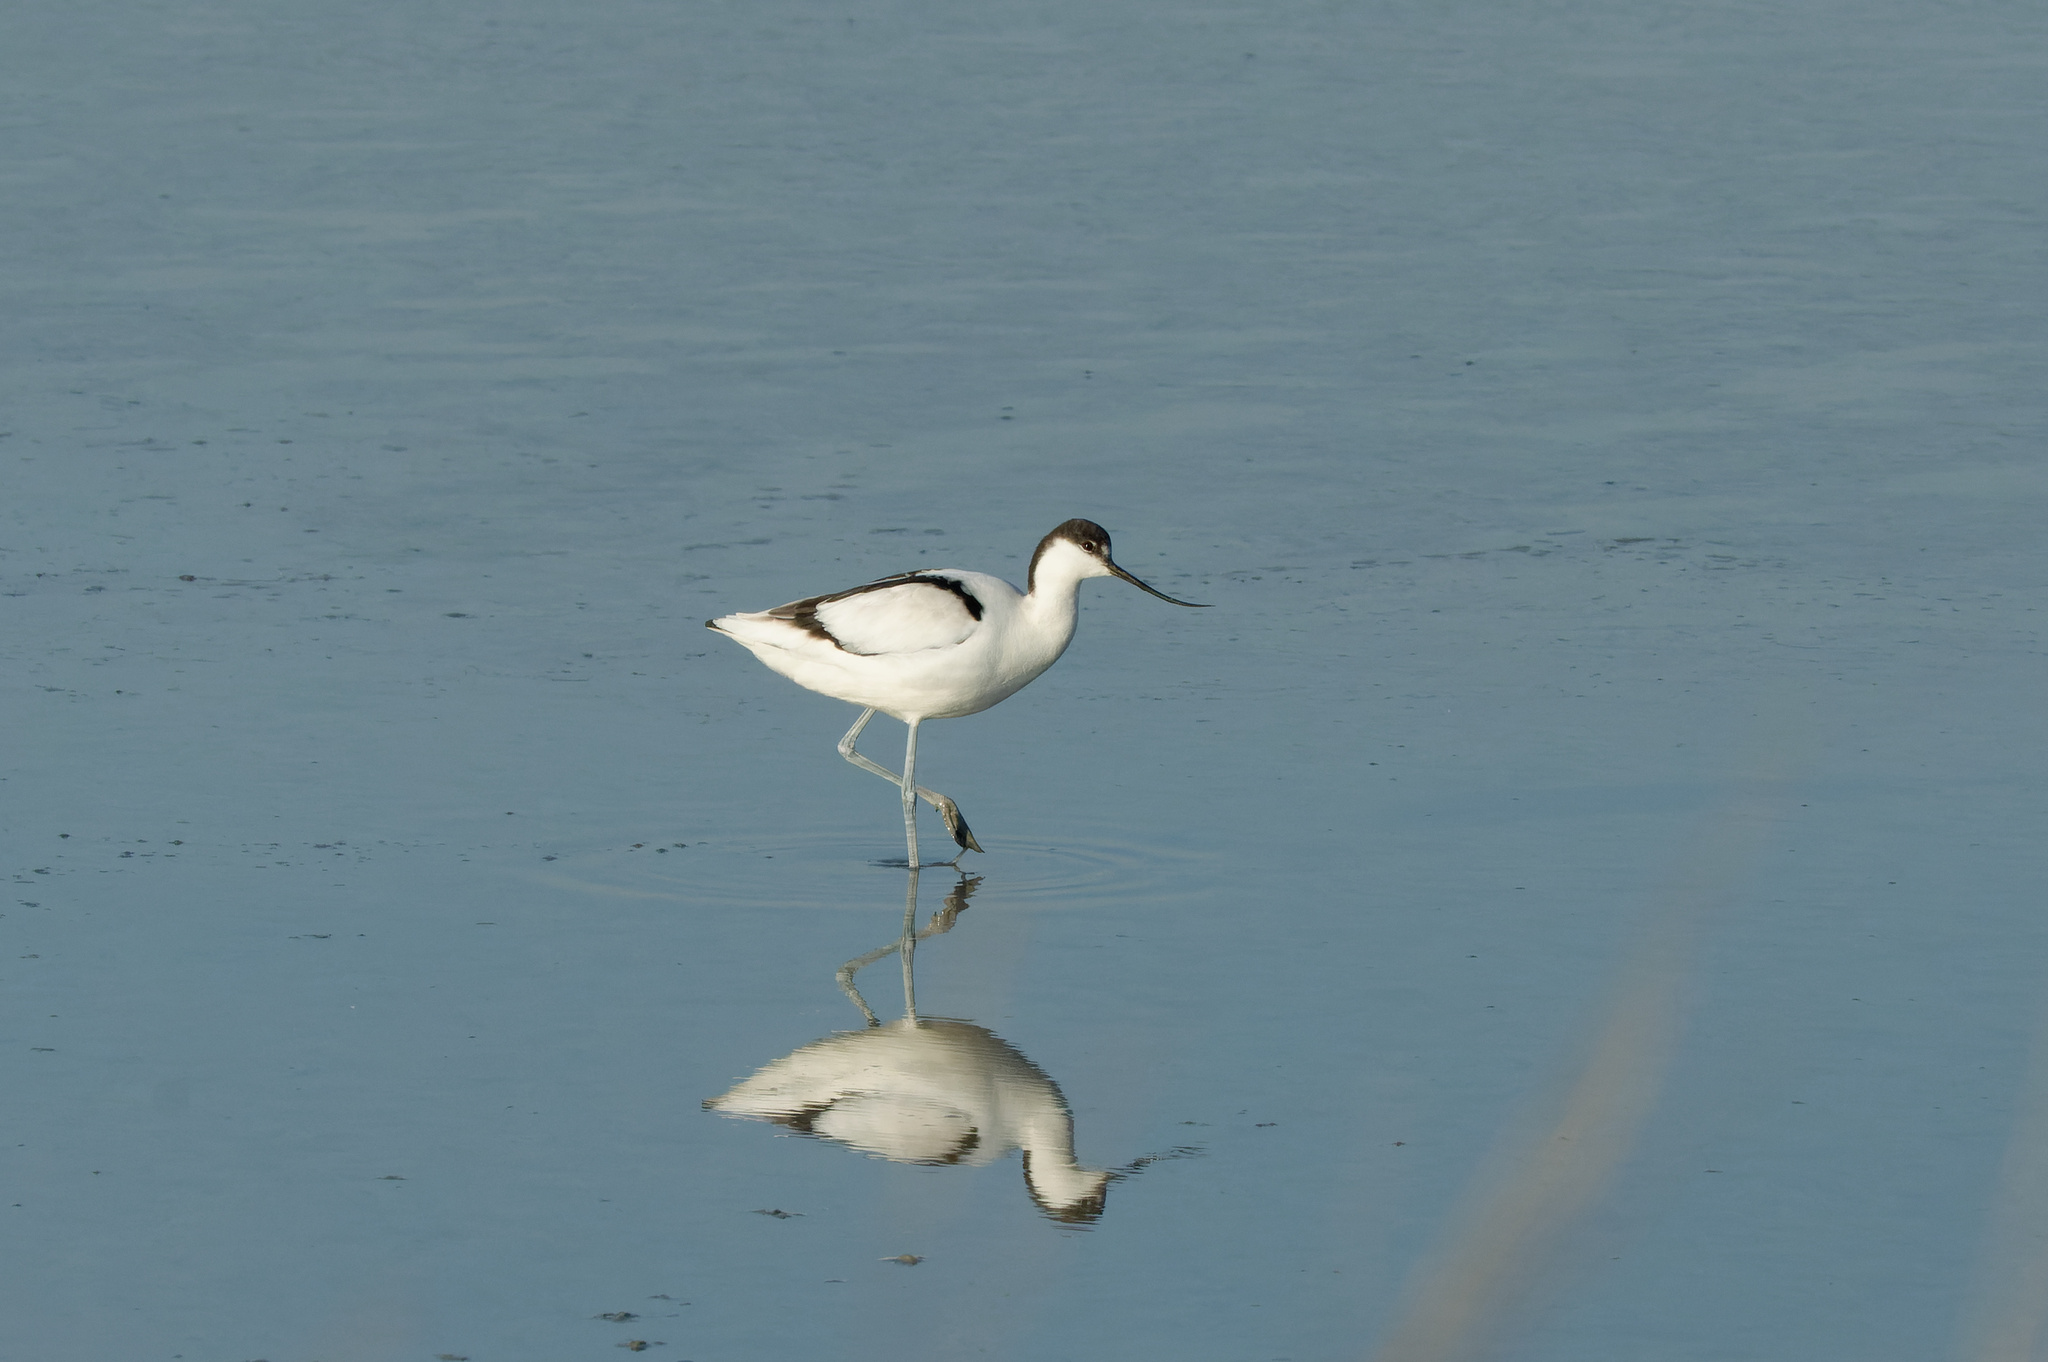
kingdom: Animalia
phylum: Chordata
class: Aves
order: Charadriiformes
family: Recurvirostridae
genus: Recurvirostra
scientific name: Recurvirostra avosetta
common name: Pied avocet
